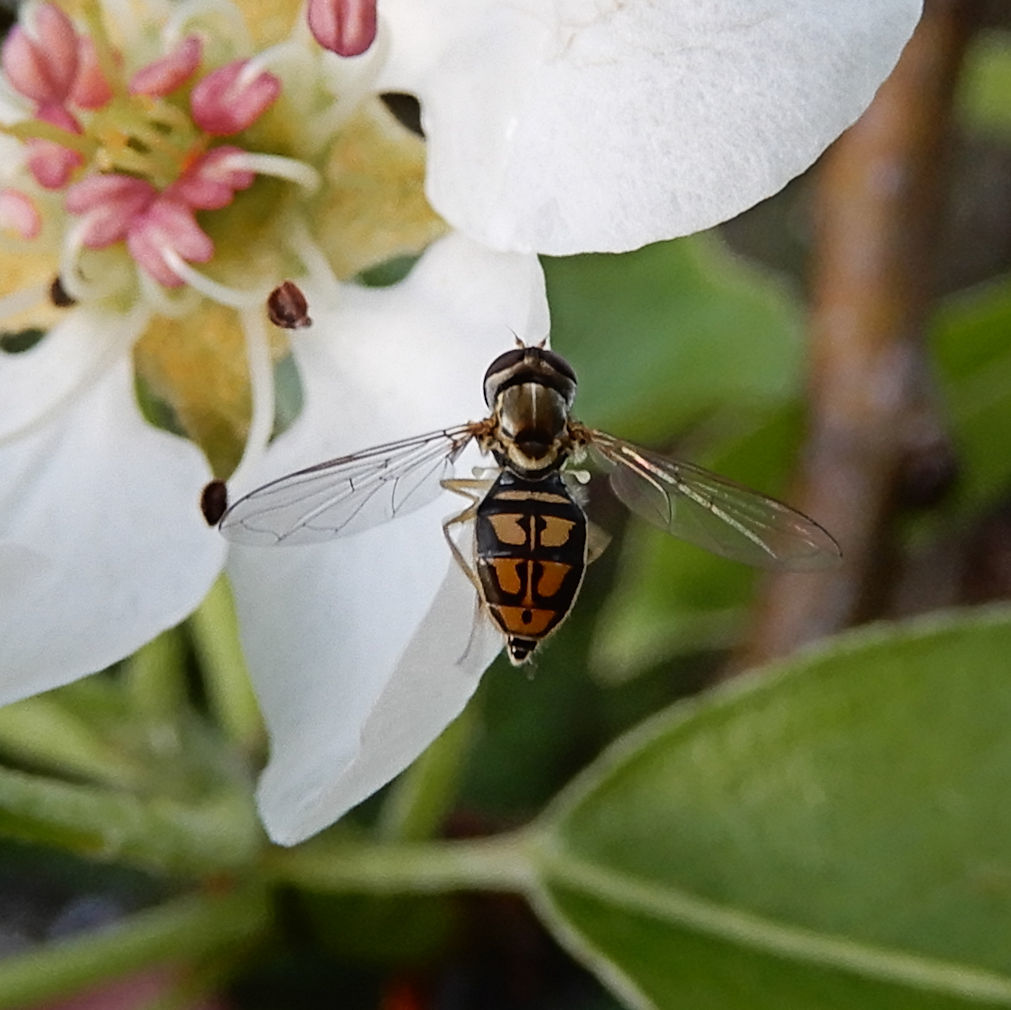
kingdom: Animalia
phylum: Arthropoda
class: Insecta
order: Diptera
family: Syrphidae
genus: Toxomerus
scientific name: Toxomerus marginatus
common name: Syrphid fly
